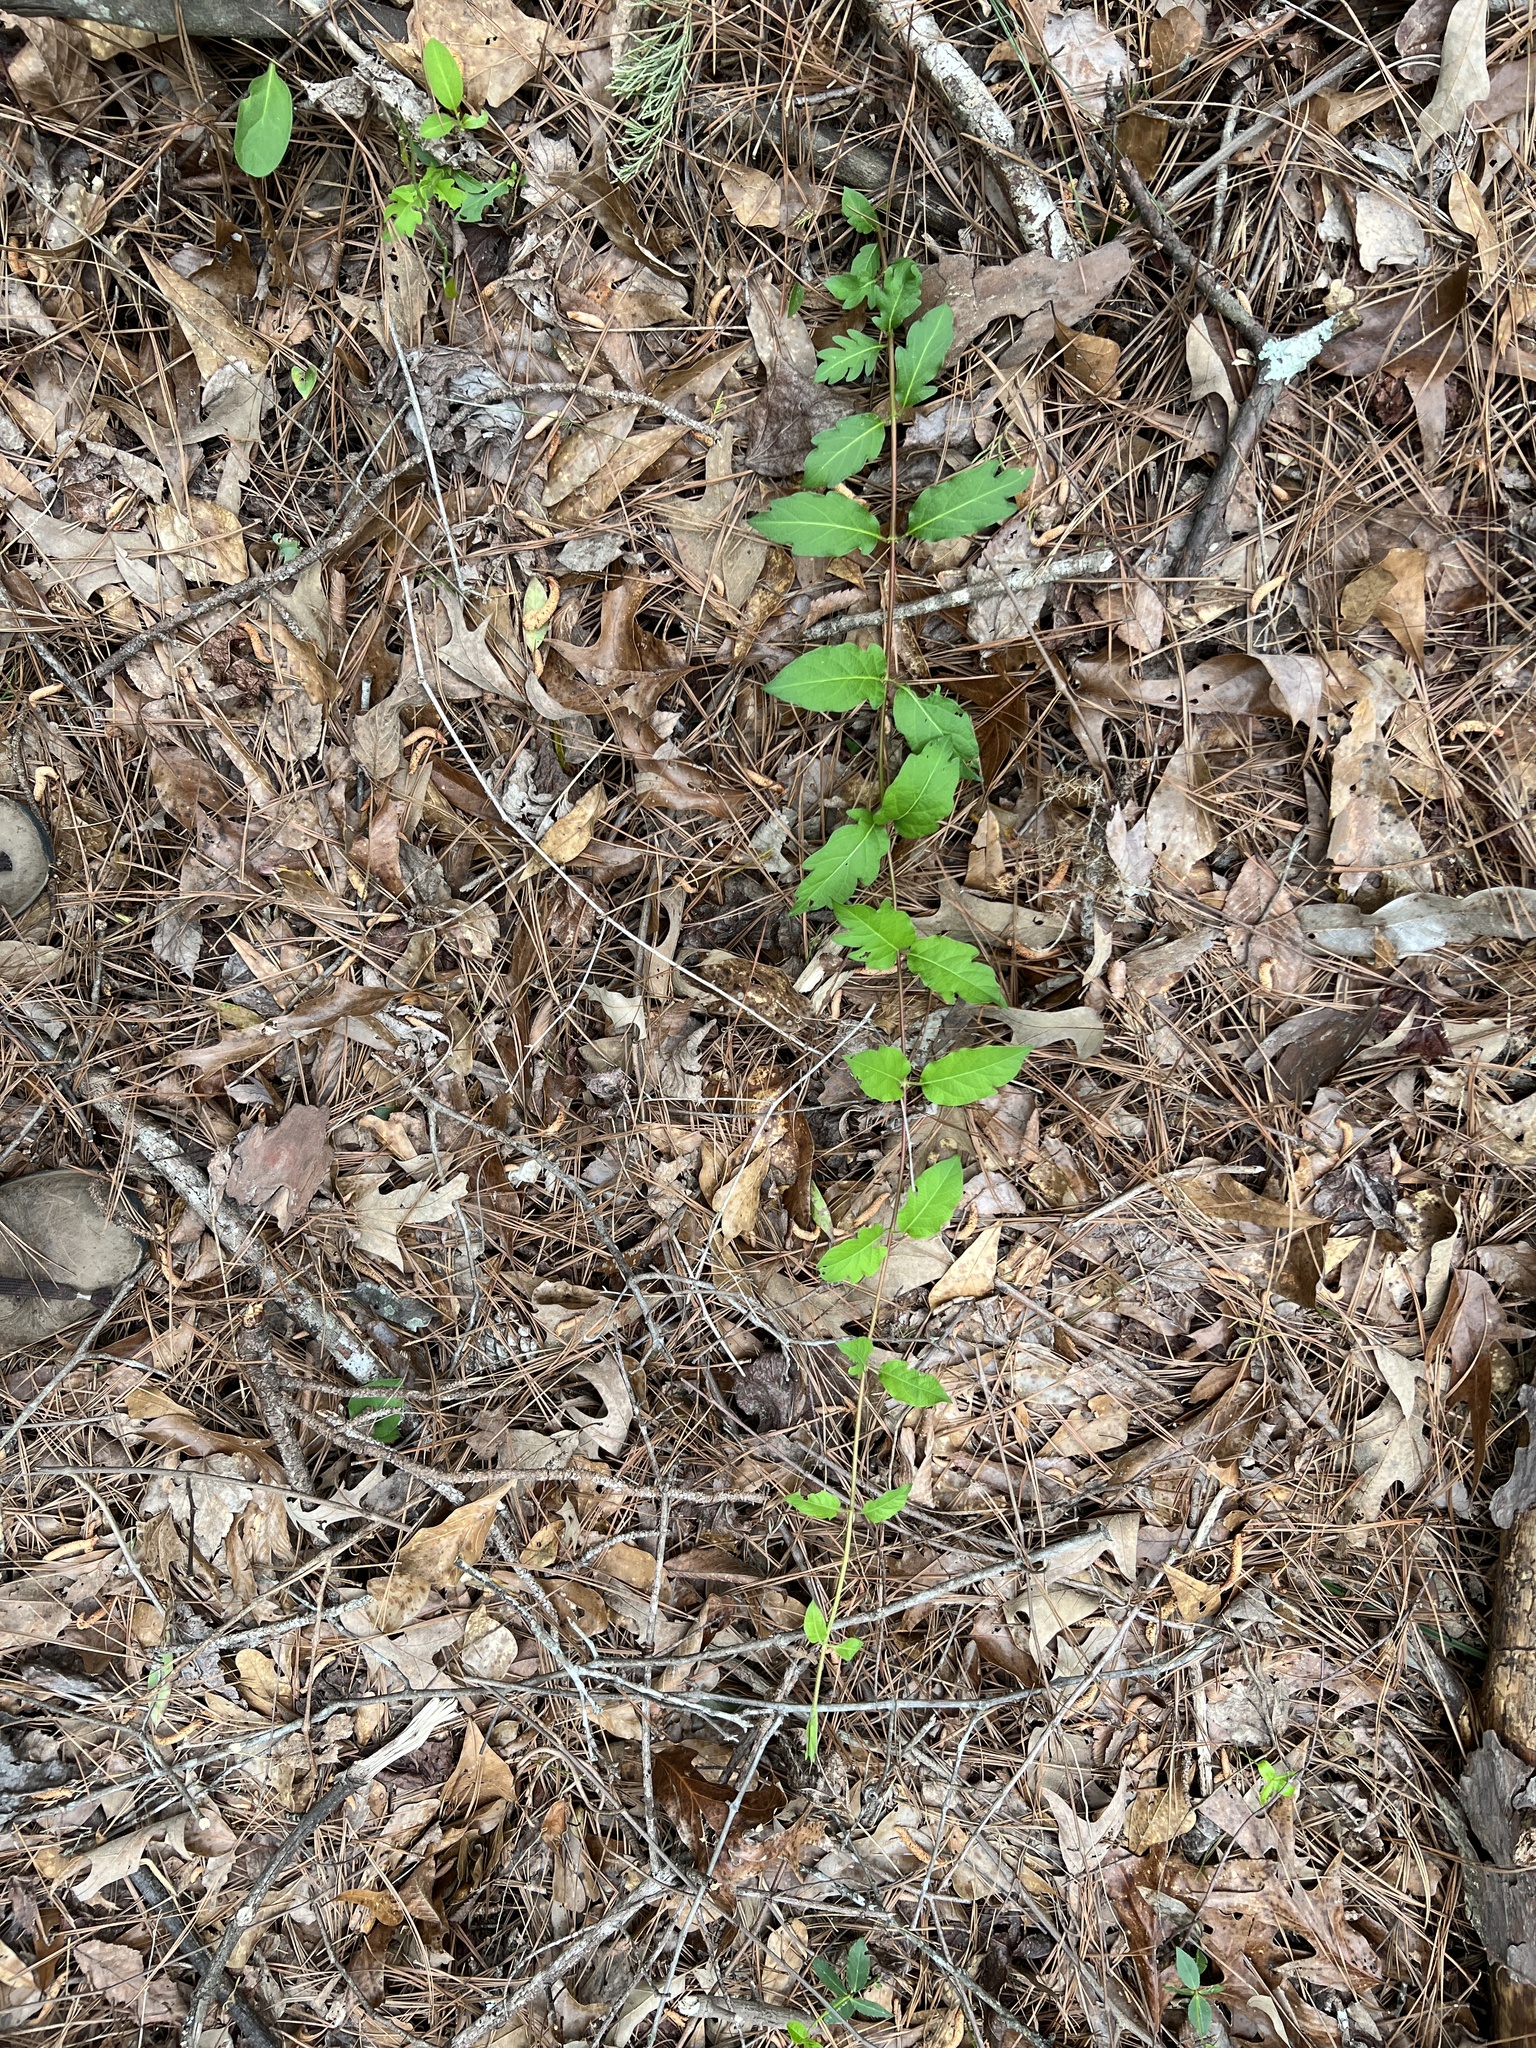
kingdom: Plantae
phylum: Tracheophyta
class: Magnoliopsida
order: Dipsacales
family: Caprifoliaceae
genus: Lonicera
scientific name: Lonicera japonica
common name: Japanese honeysuckle
